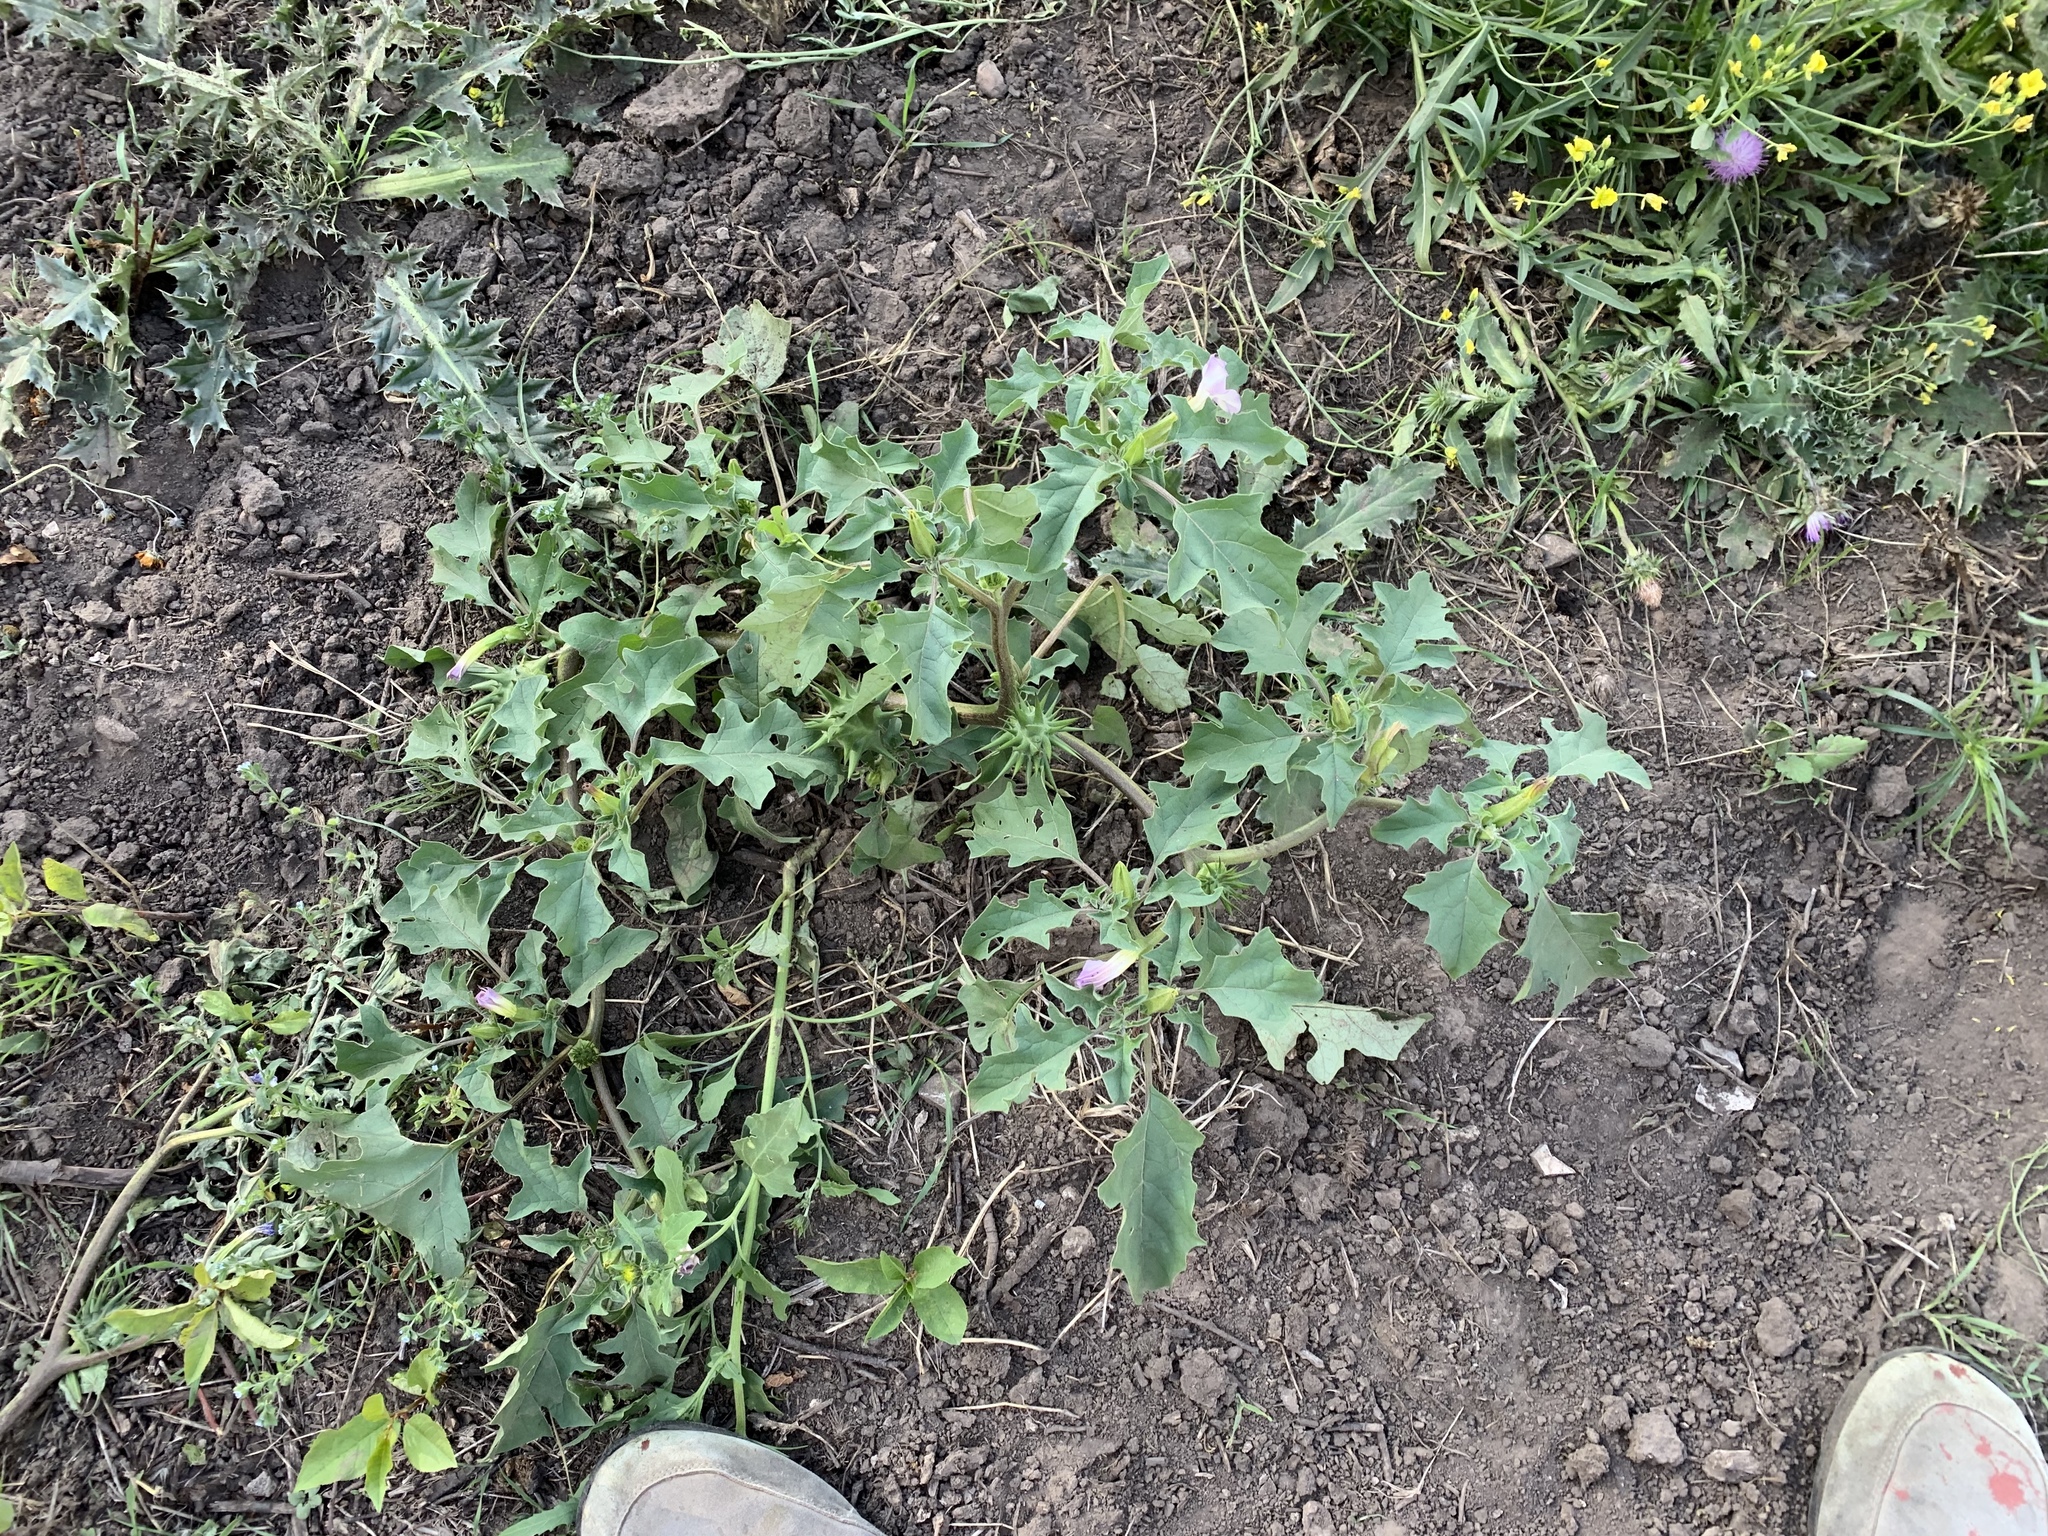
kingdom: Plantae
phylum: Tracheophyta
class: Magnoliopsida
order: Solanales
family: Solanaceae
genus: Datura
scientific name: Datura quercifolia
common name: Oak-leaf datura
